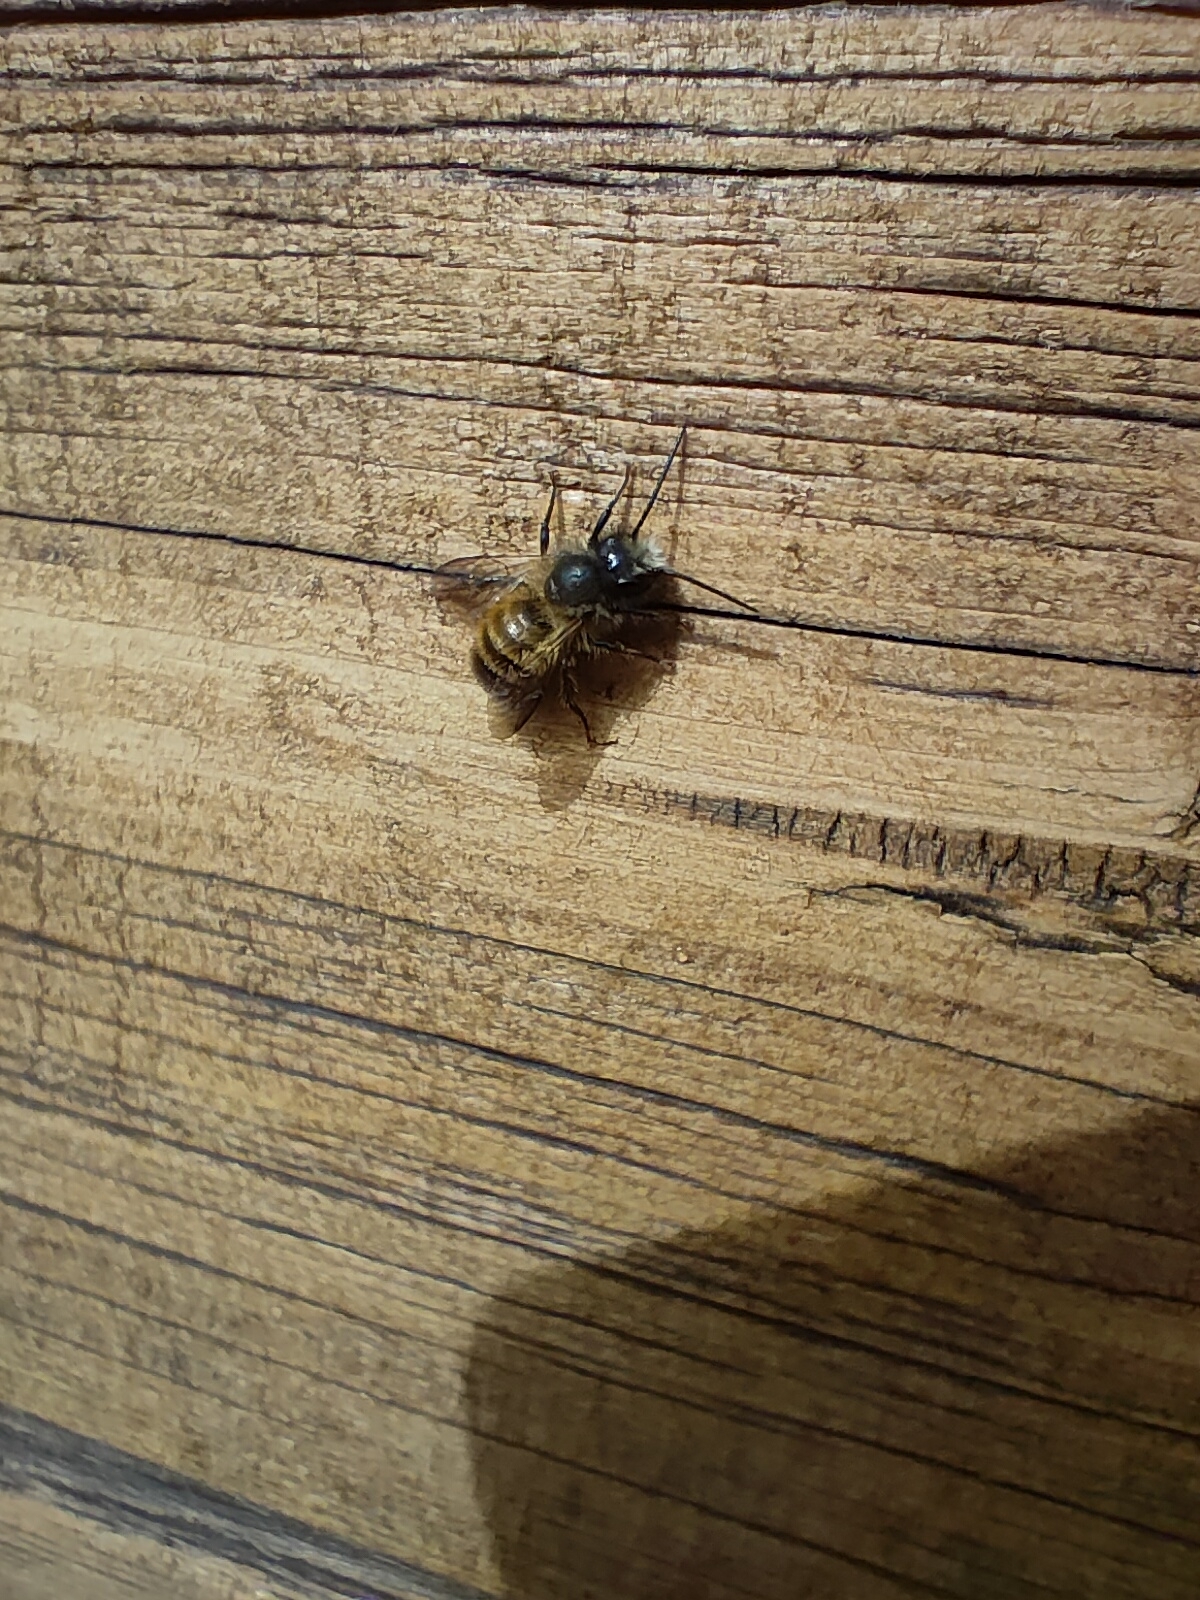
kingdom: Animalia
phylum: Arthropoda
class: Insecta
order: Hymenoptera
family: Megachilidae
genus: Osmia
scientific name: Osmia bicornis
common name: Red mason bee
